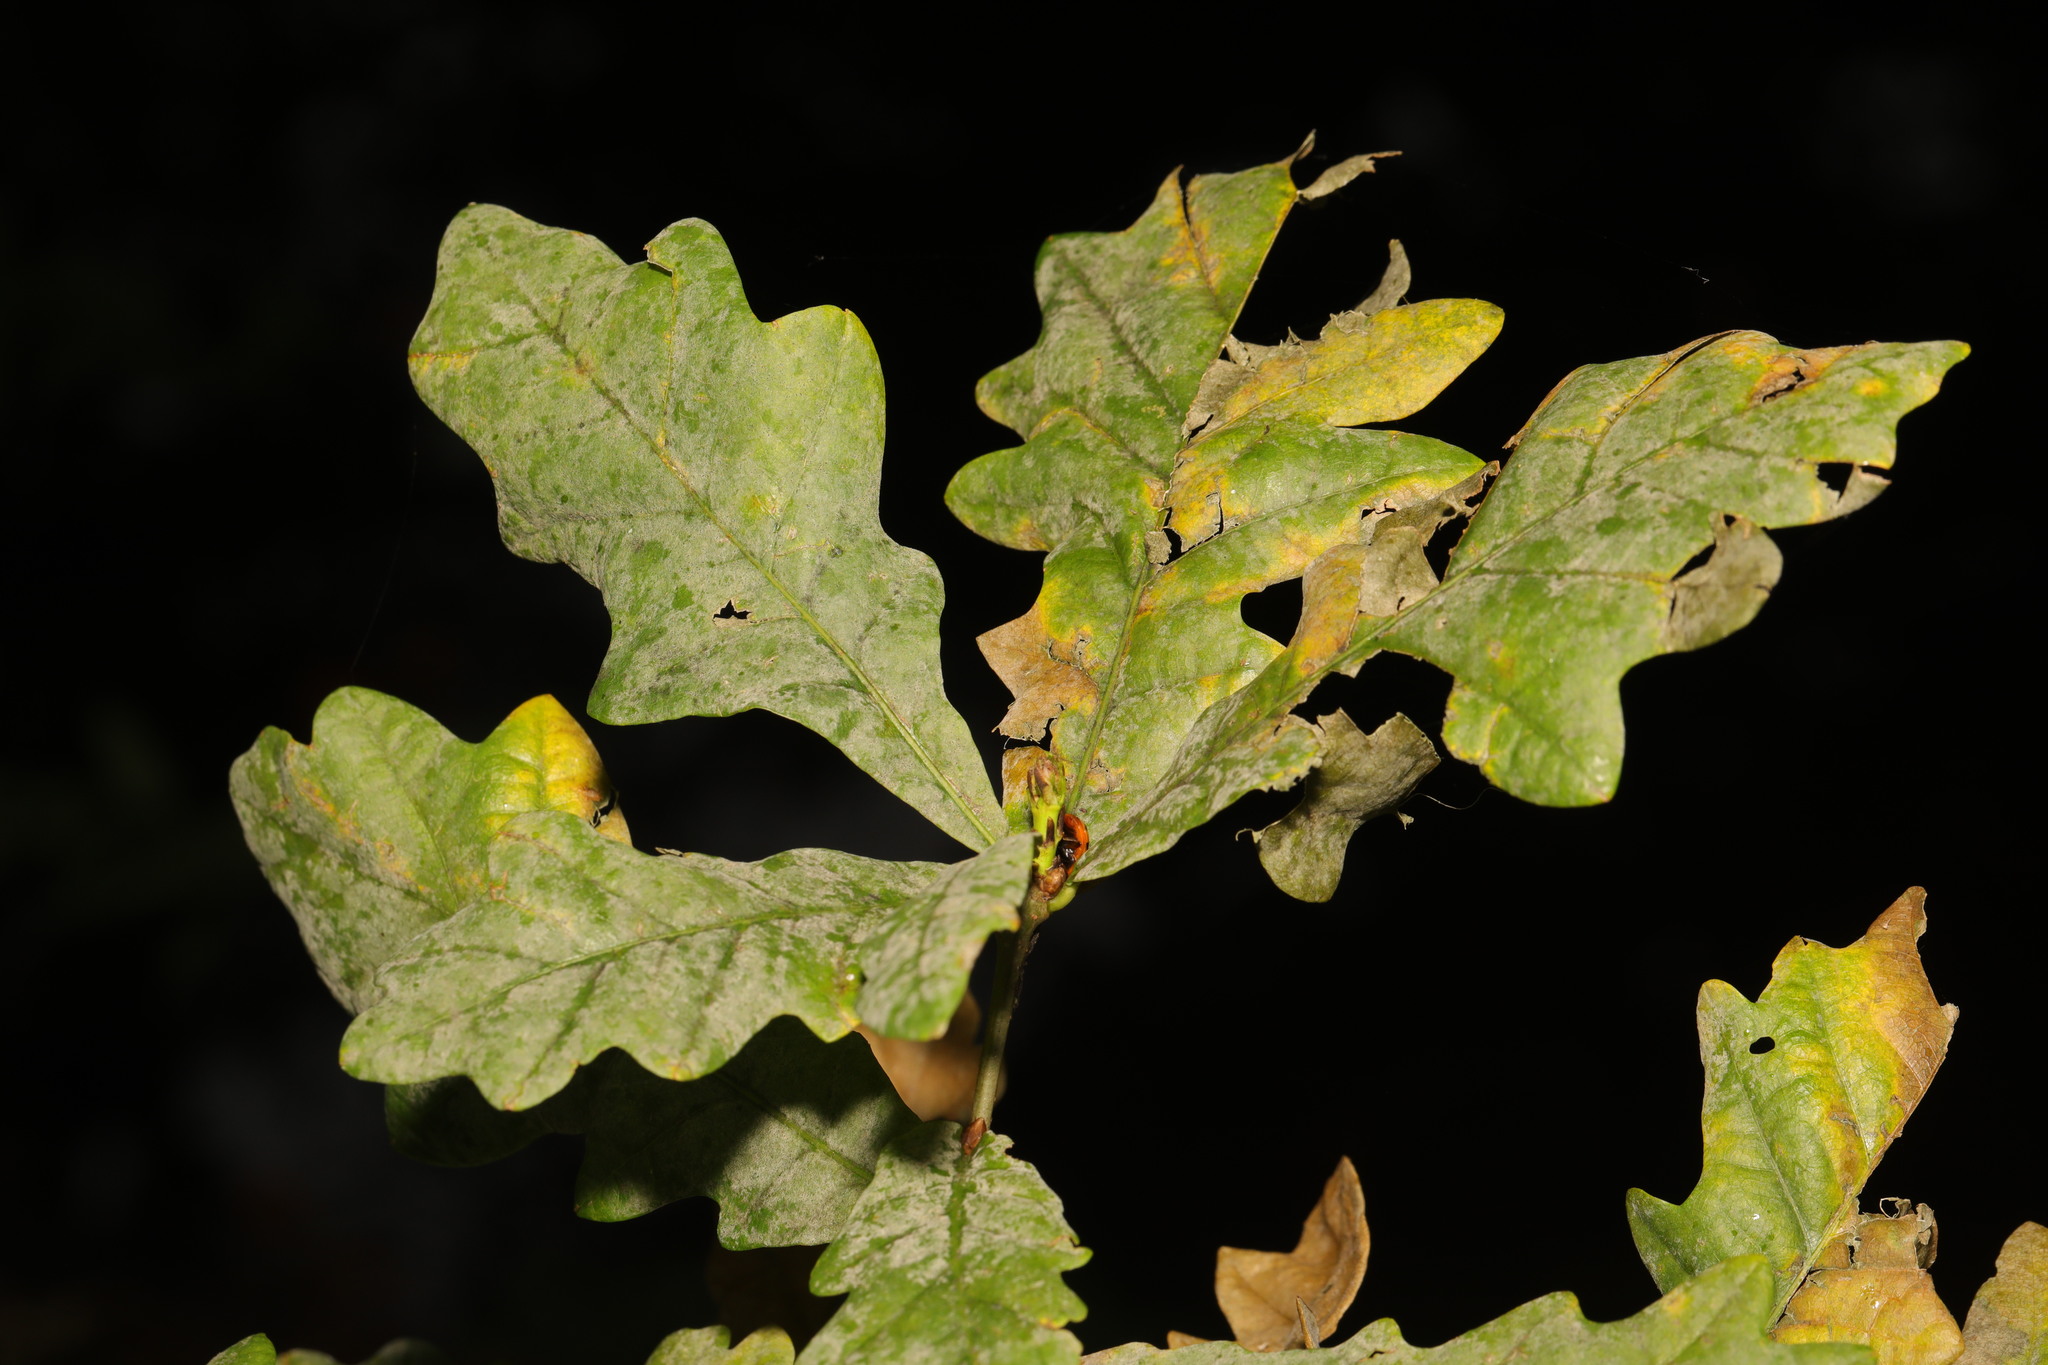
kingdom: Fungi
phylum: Ascomycota
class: Leotiomycetes
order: Helotiales
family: Erysiphaceae
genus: Erysiphe
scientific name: Erysiphe alphitoides
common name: Oak mildew
